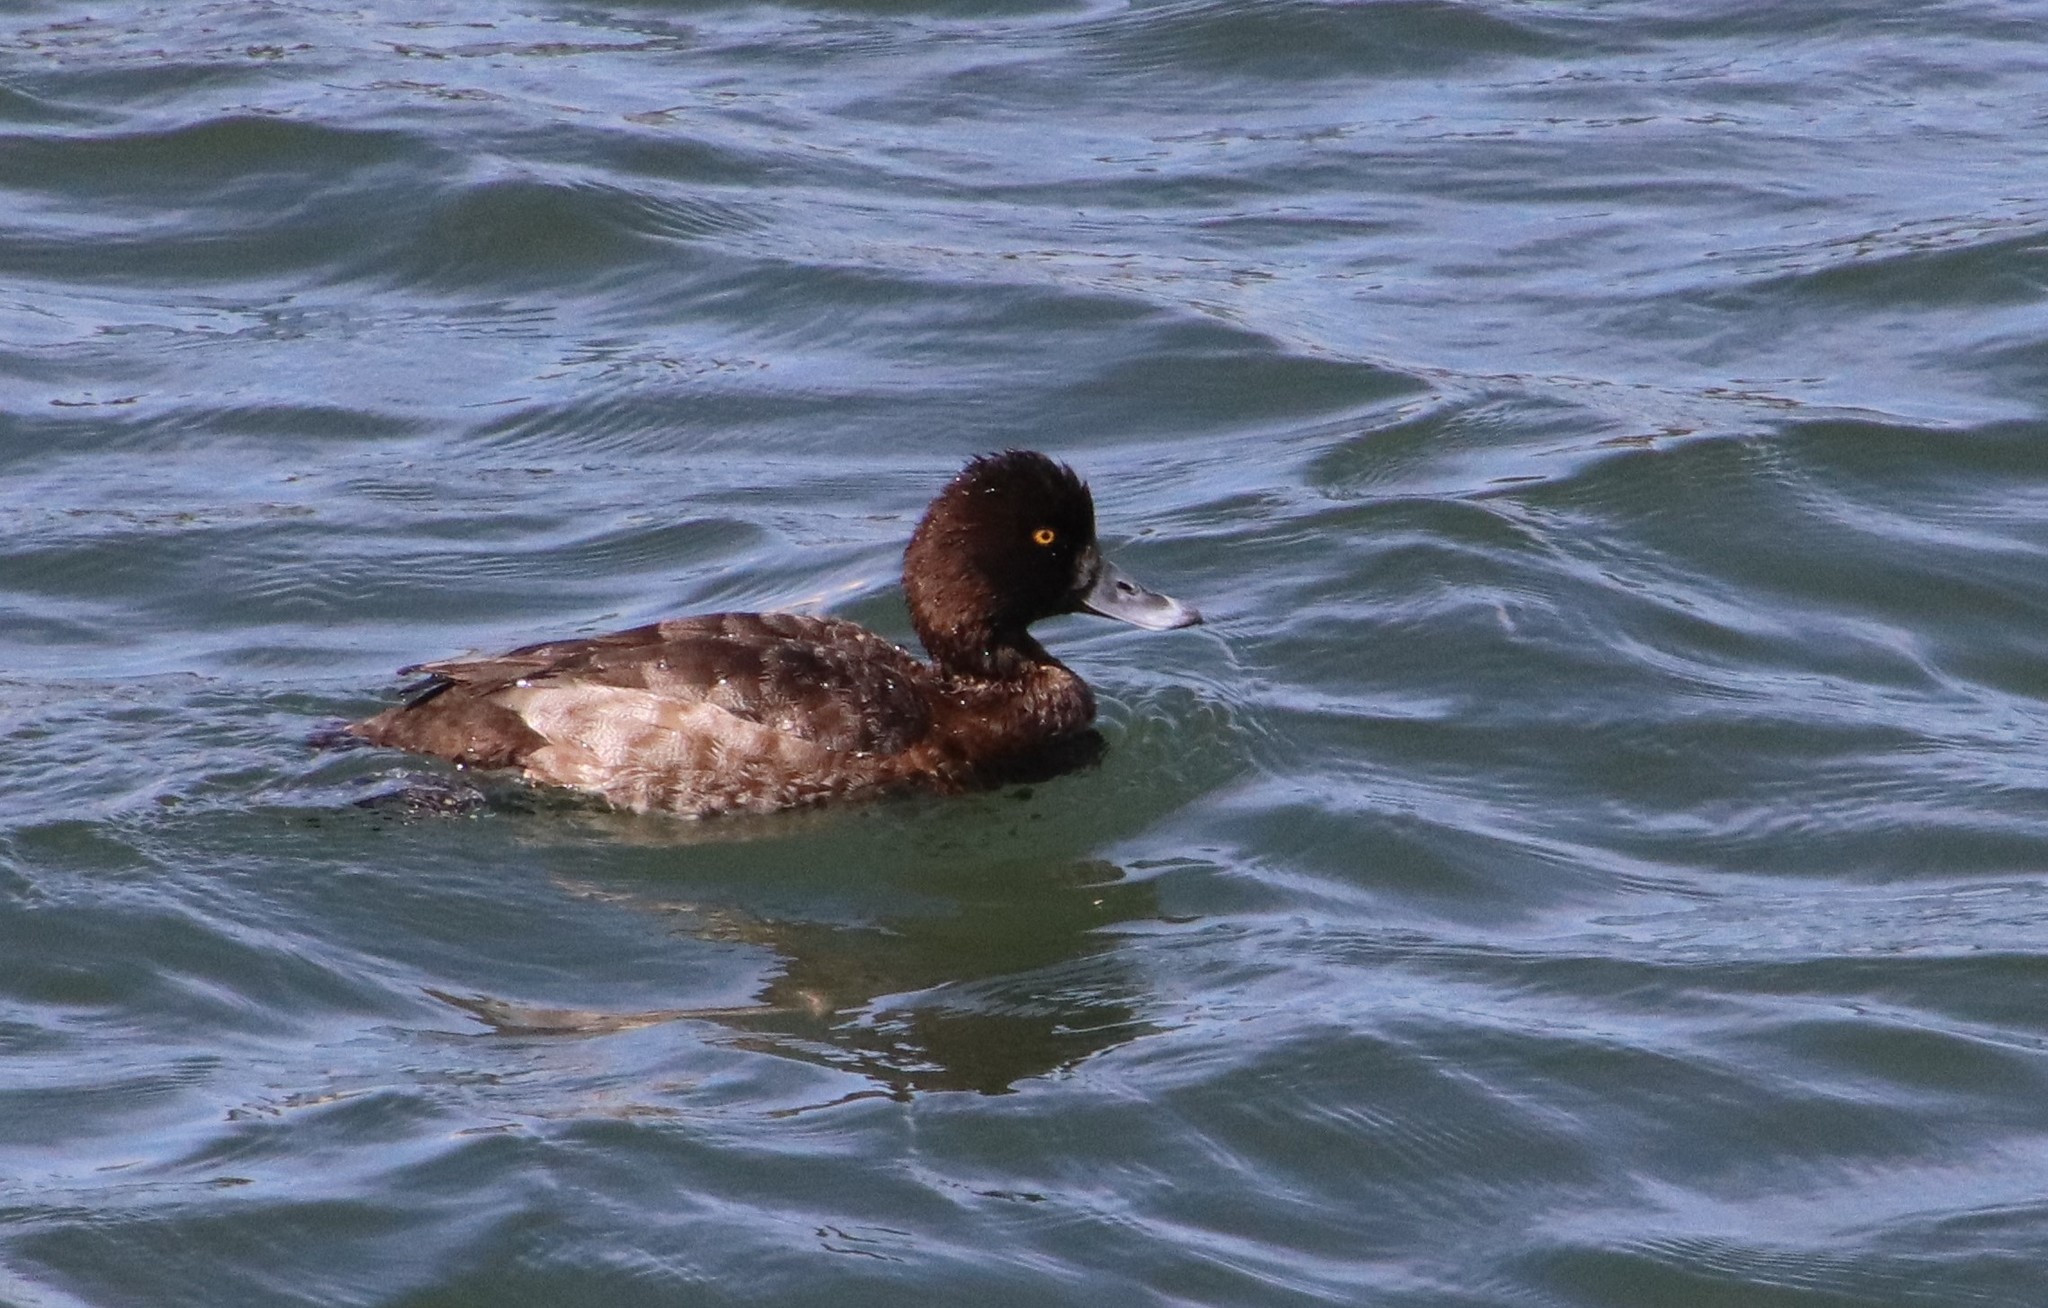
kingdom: Animalia
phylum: Chordata
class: Aves
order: Anseriformes
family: Anatidae
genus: Aythya
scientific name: Aythya affinis
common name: Lesser scaup
